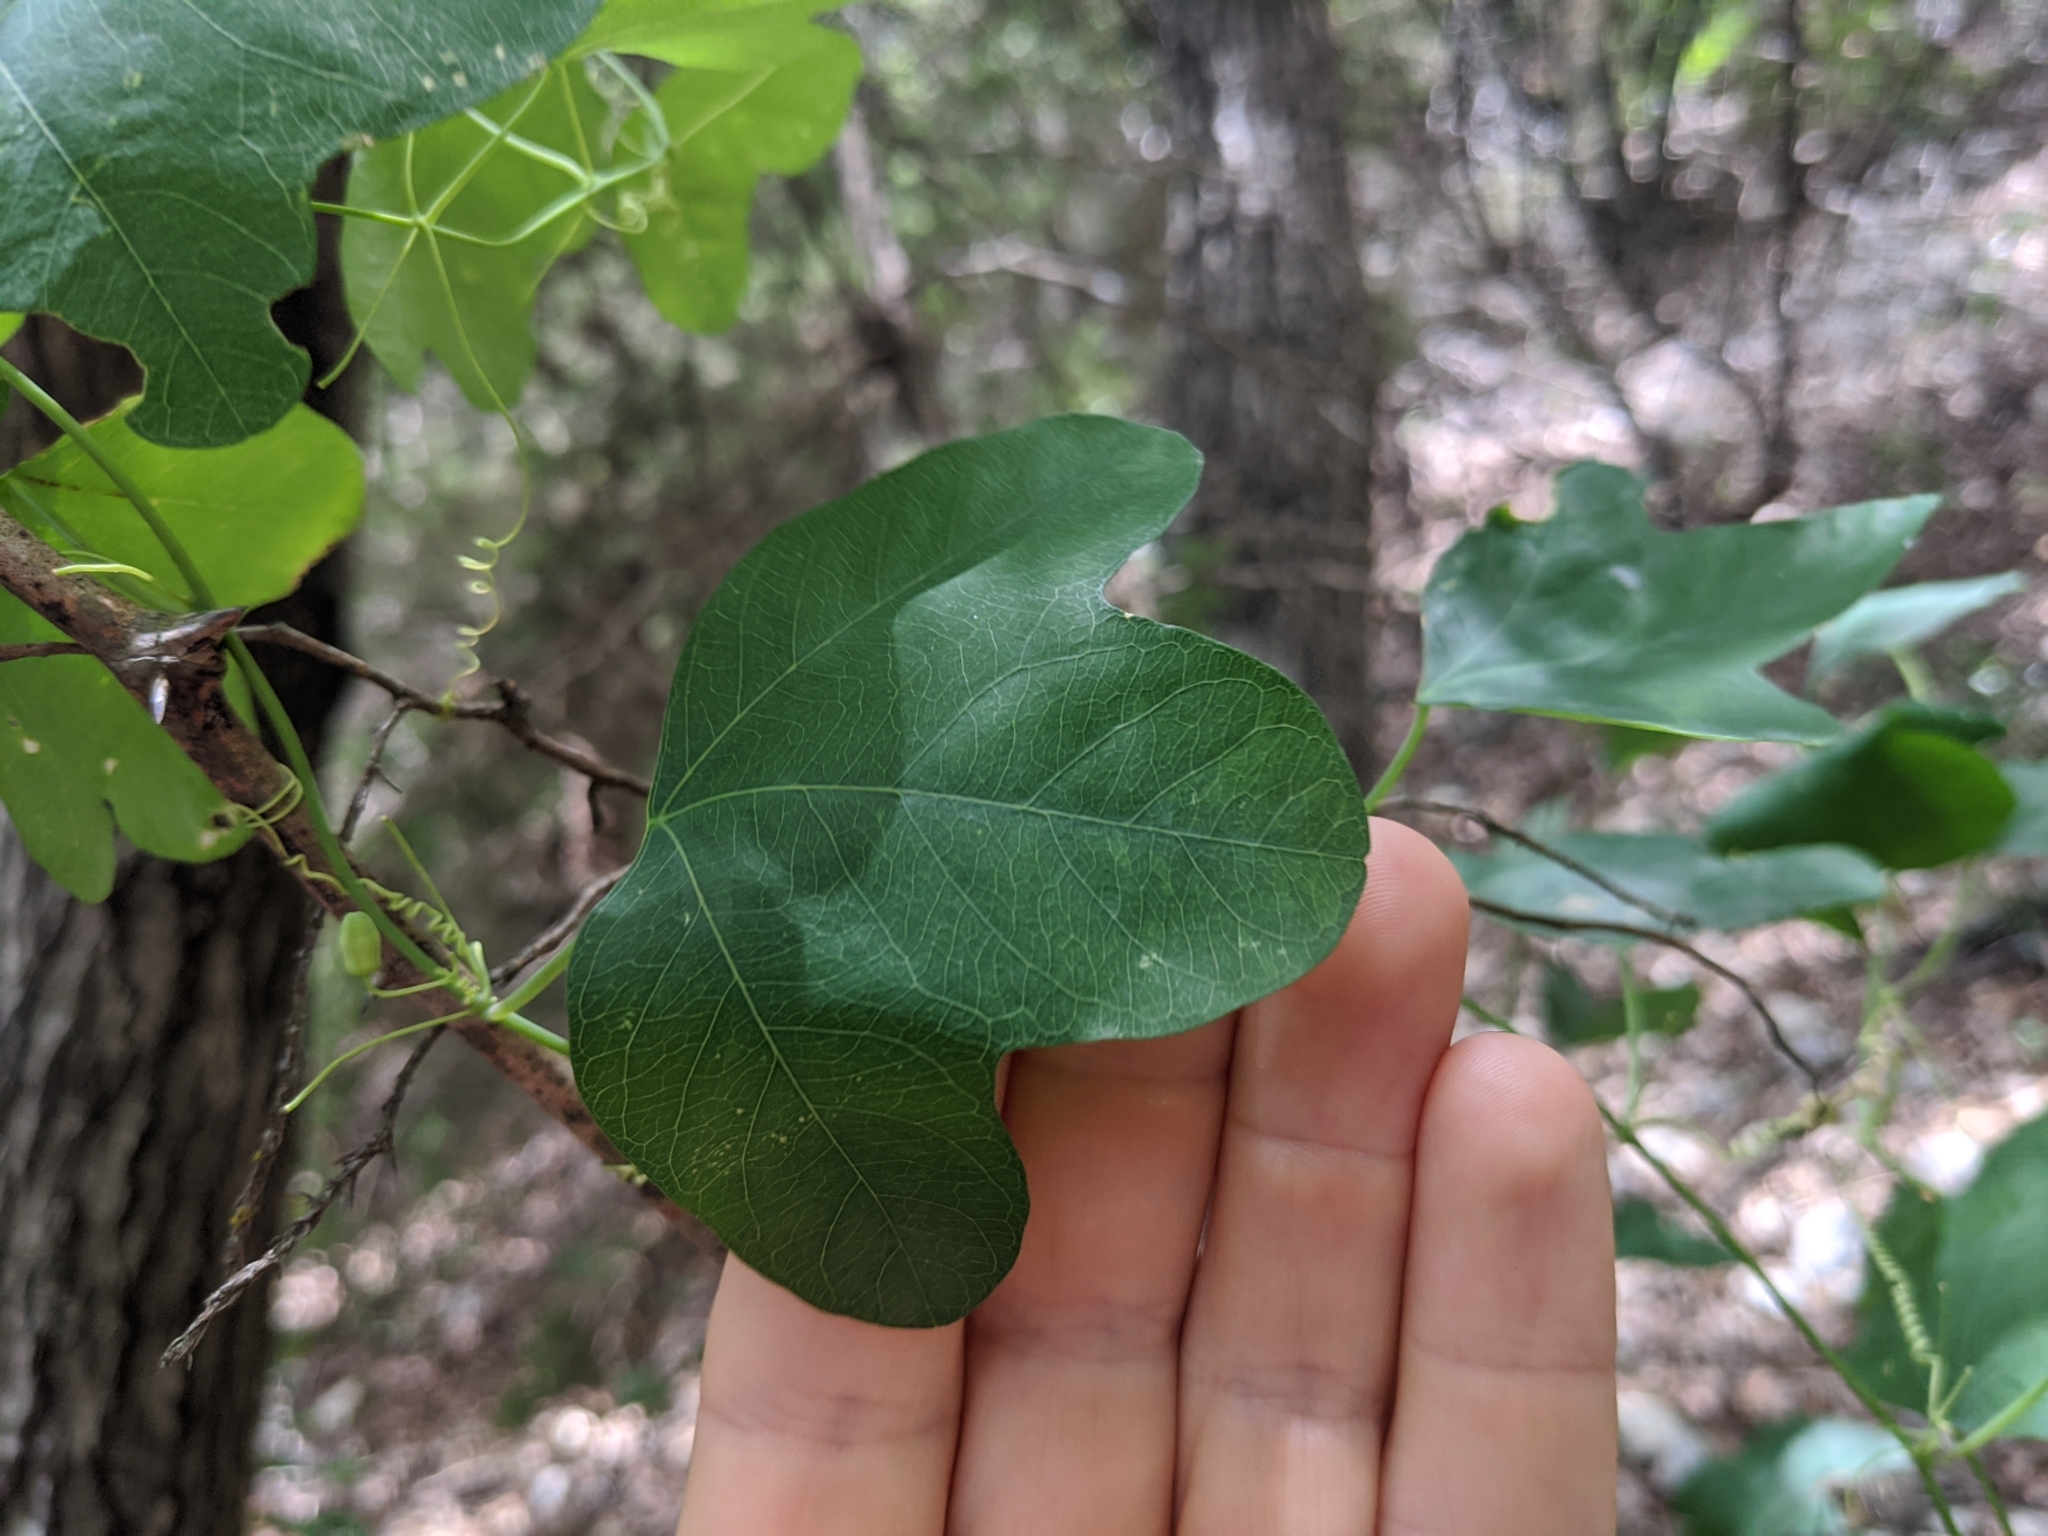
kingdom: Plantae
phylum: Tracheophyta
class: Magnoliopsida
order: Malpighiales
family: Passifloraceae
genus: Passiflora
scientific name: Passiflora lutea
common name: Yellow passionflower
